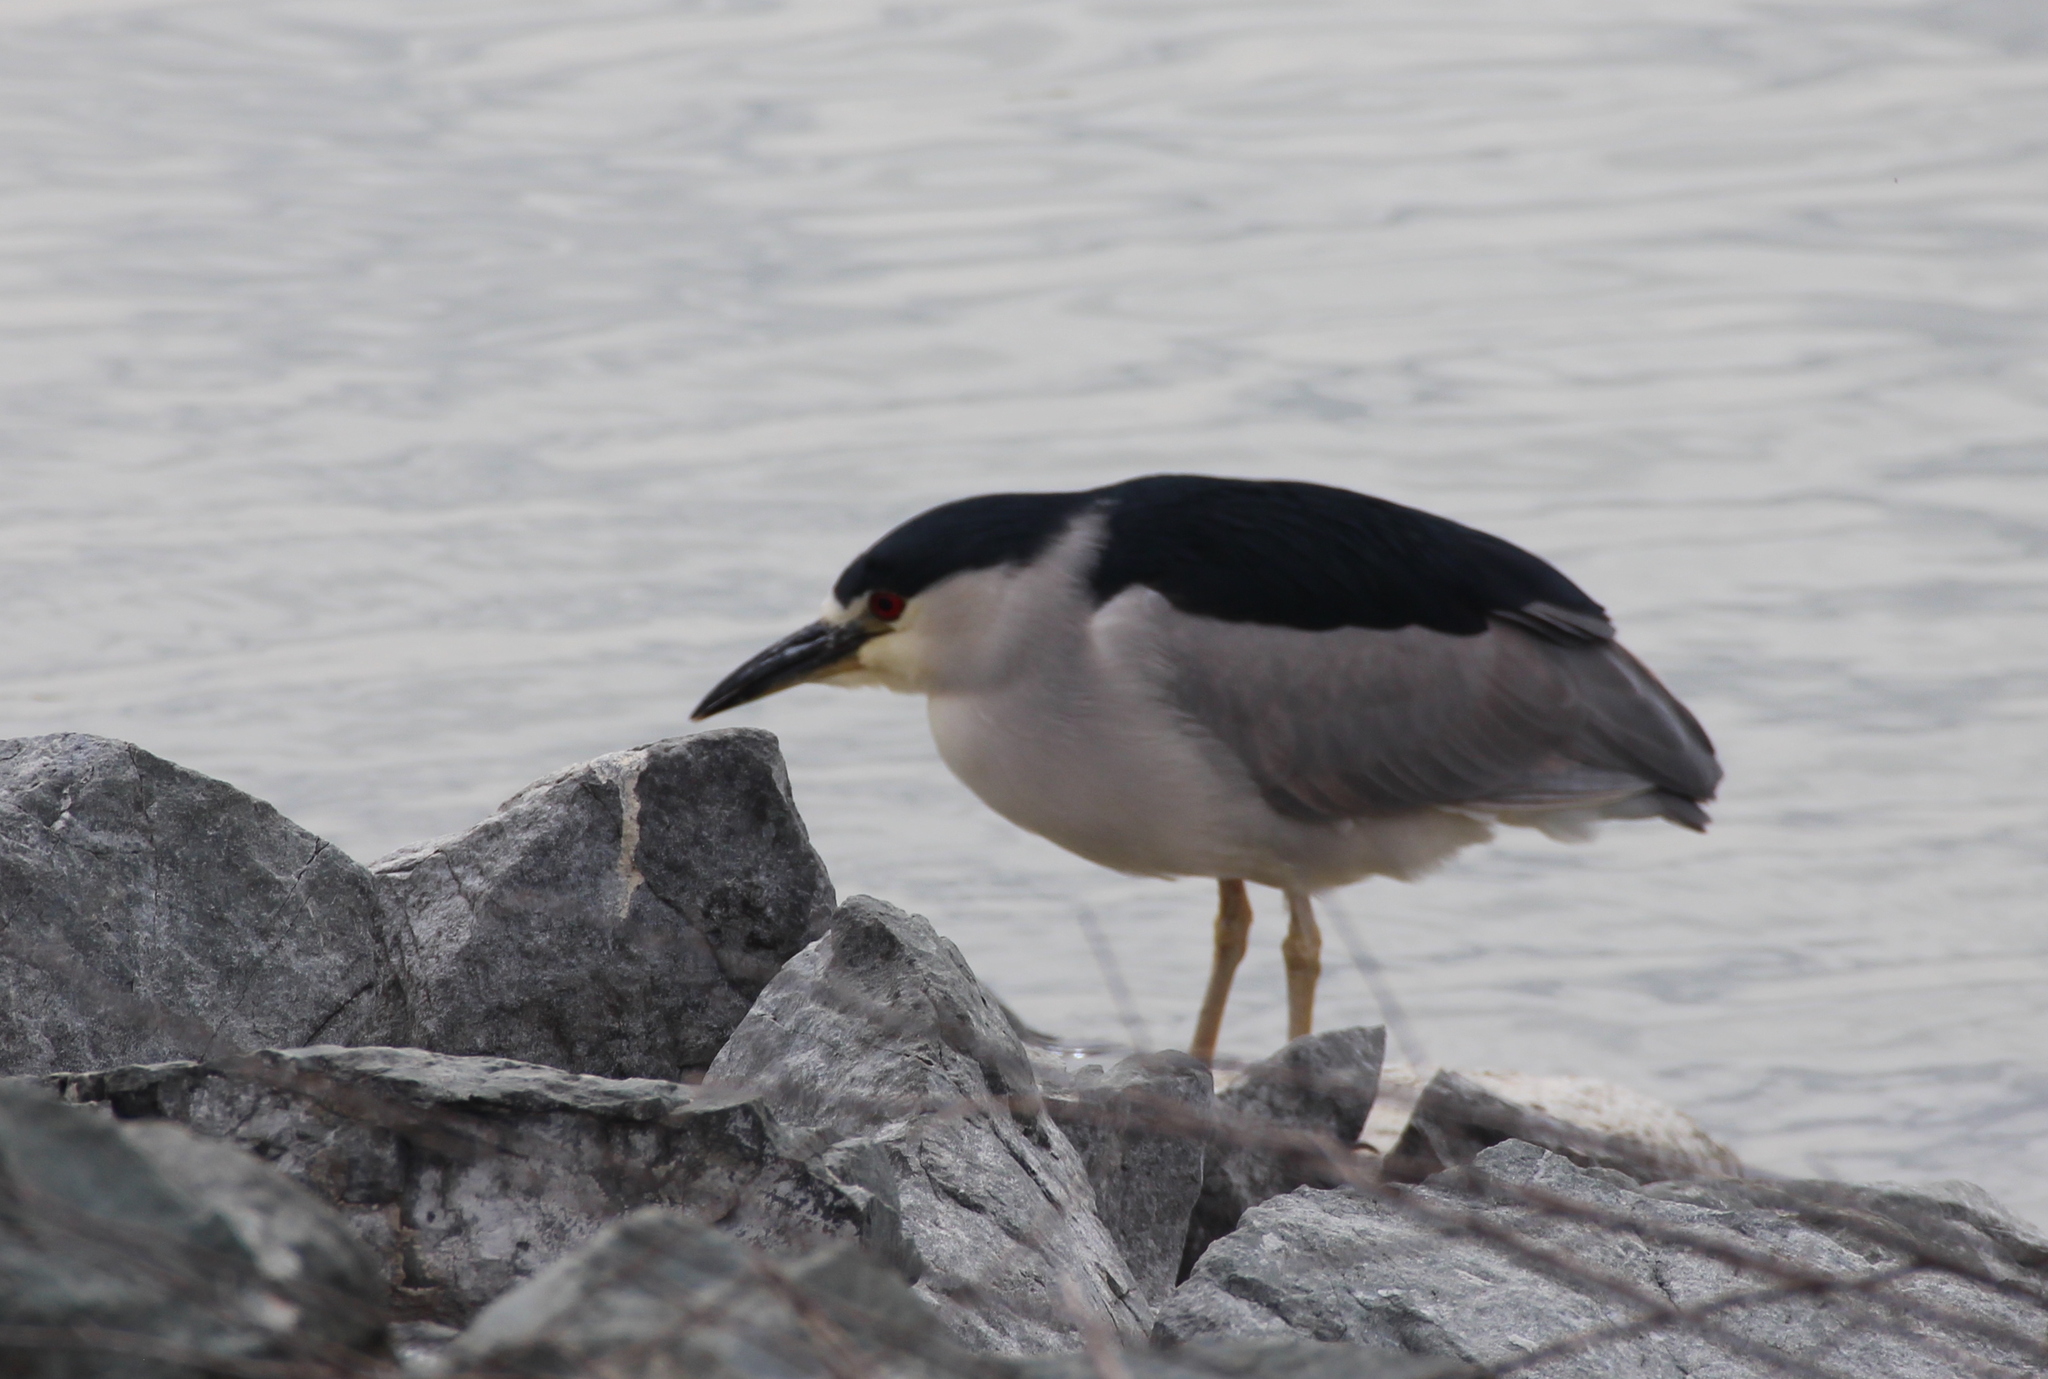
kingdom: Animalia
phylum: Chordata
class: Aves
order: Pelecaniformes
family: Ardeidae
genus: Nycticorax
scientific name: Nycticorax nycticorax
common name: Black-crowned night heron
